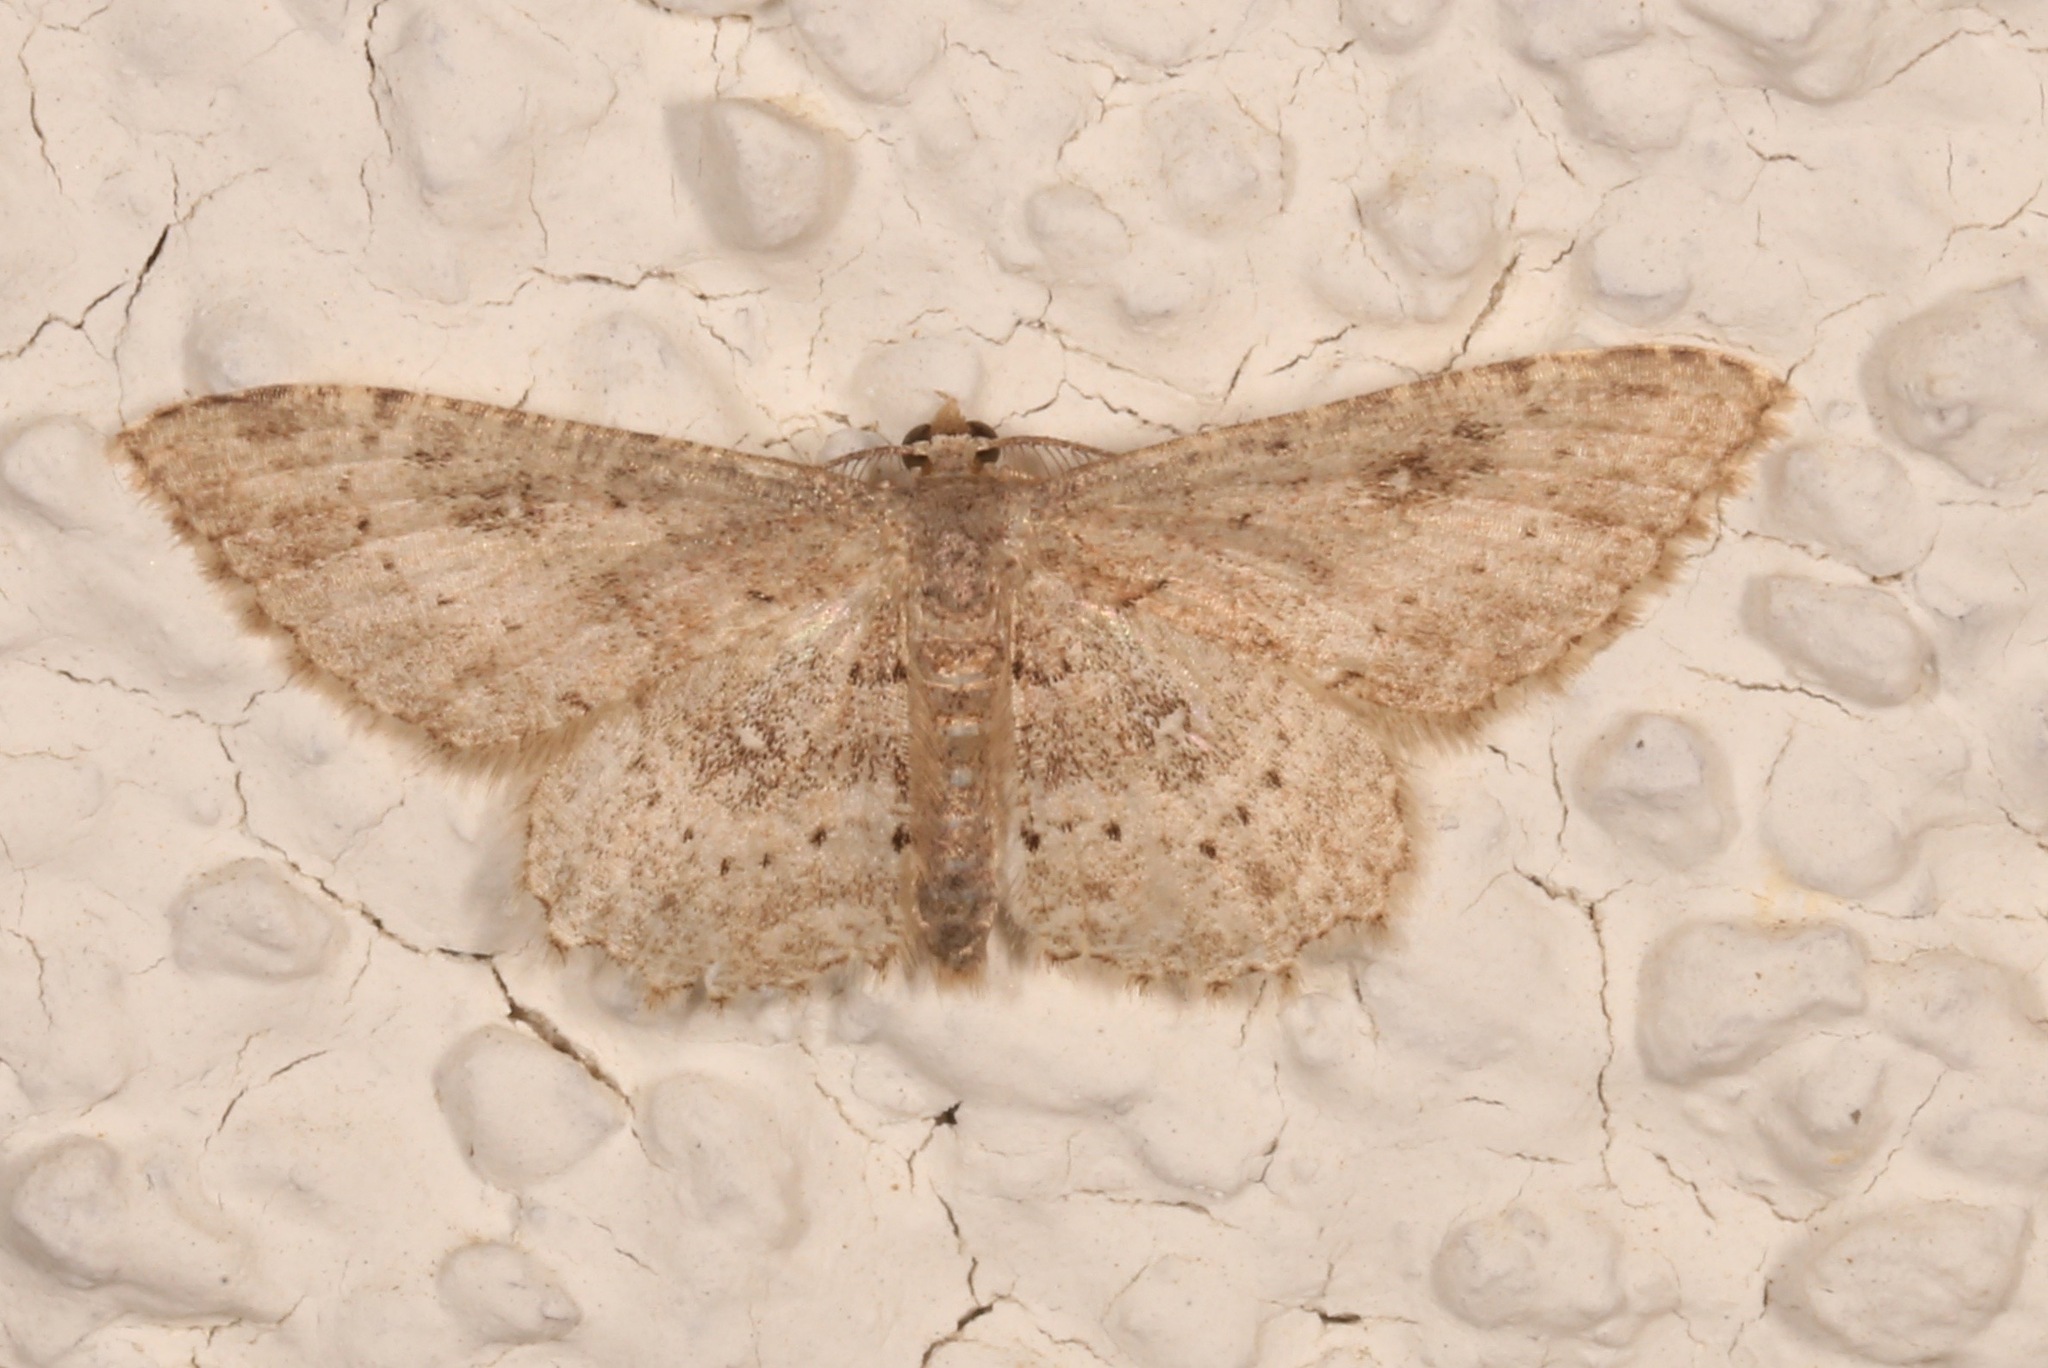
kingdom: Animalia
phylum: Arthropoda
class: Insecta
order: Lepidoptera
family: Geometridae
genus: Cyclophora
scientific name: Cyclophora nanaria
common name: Cankerworm
